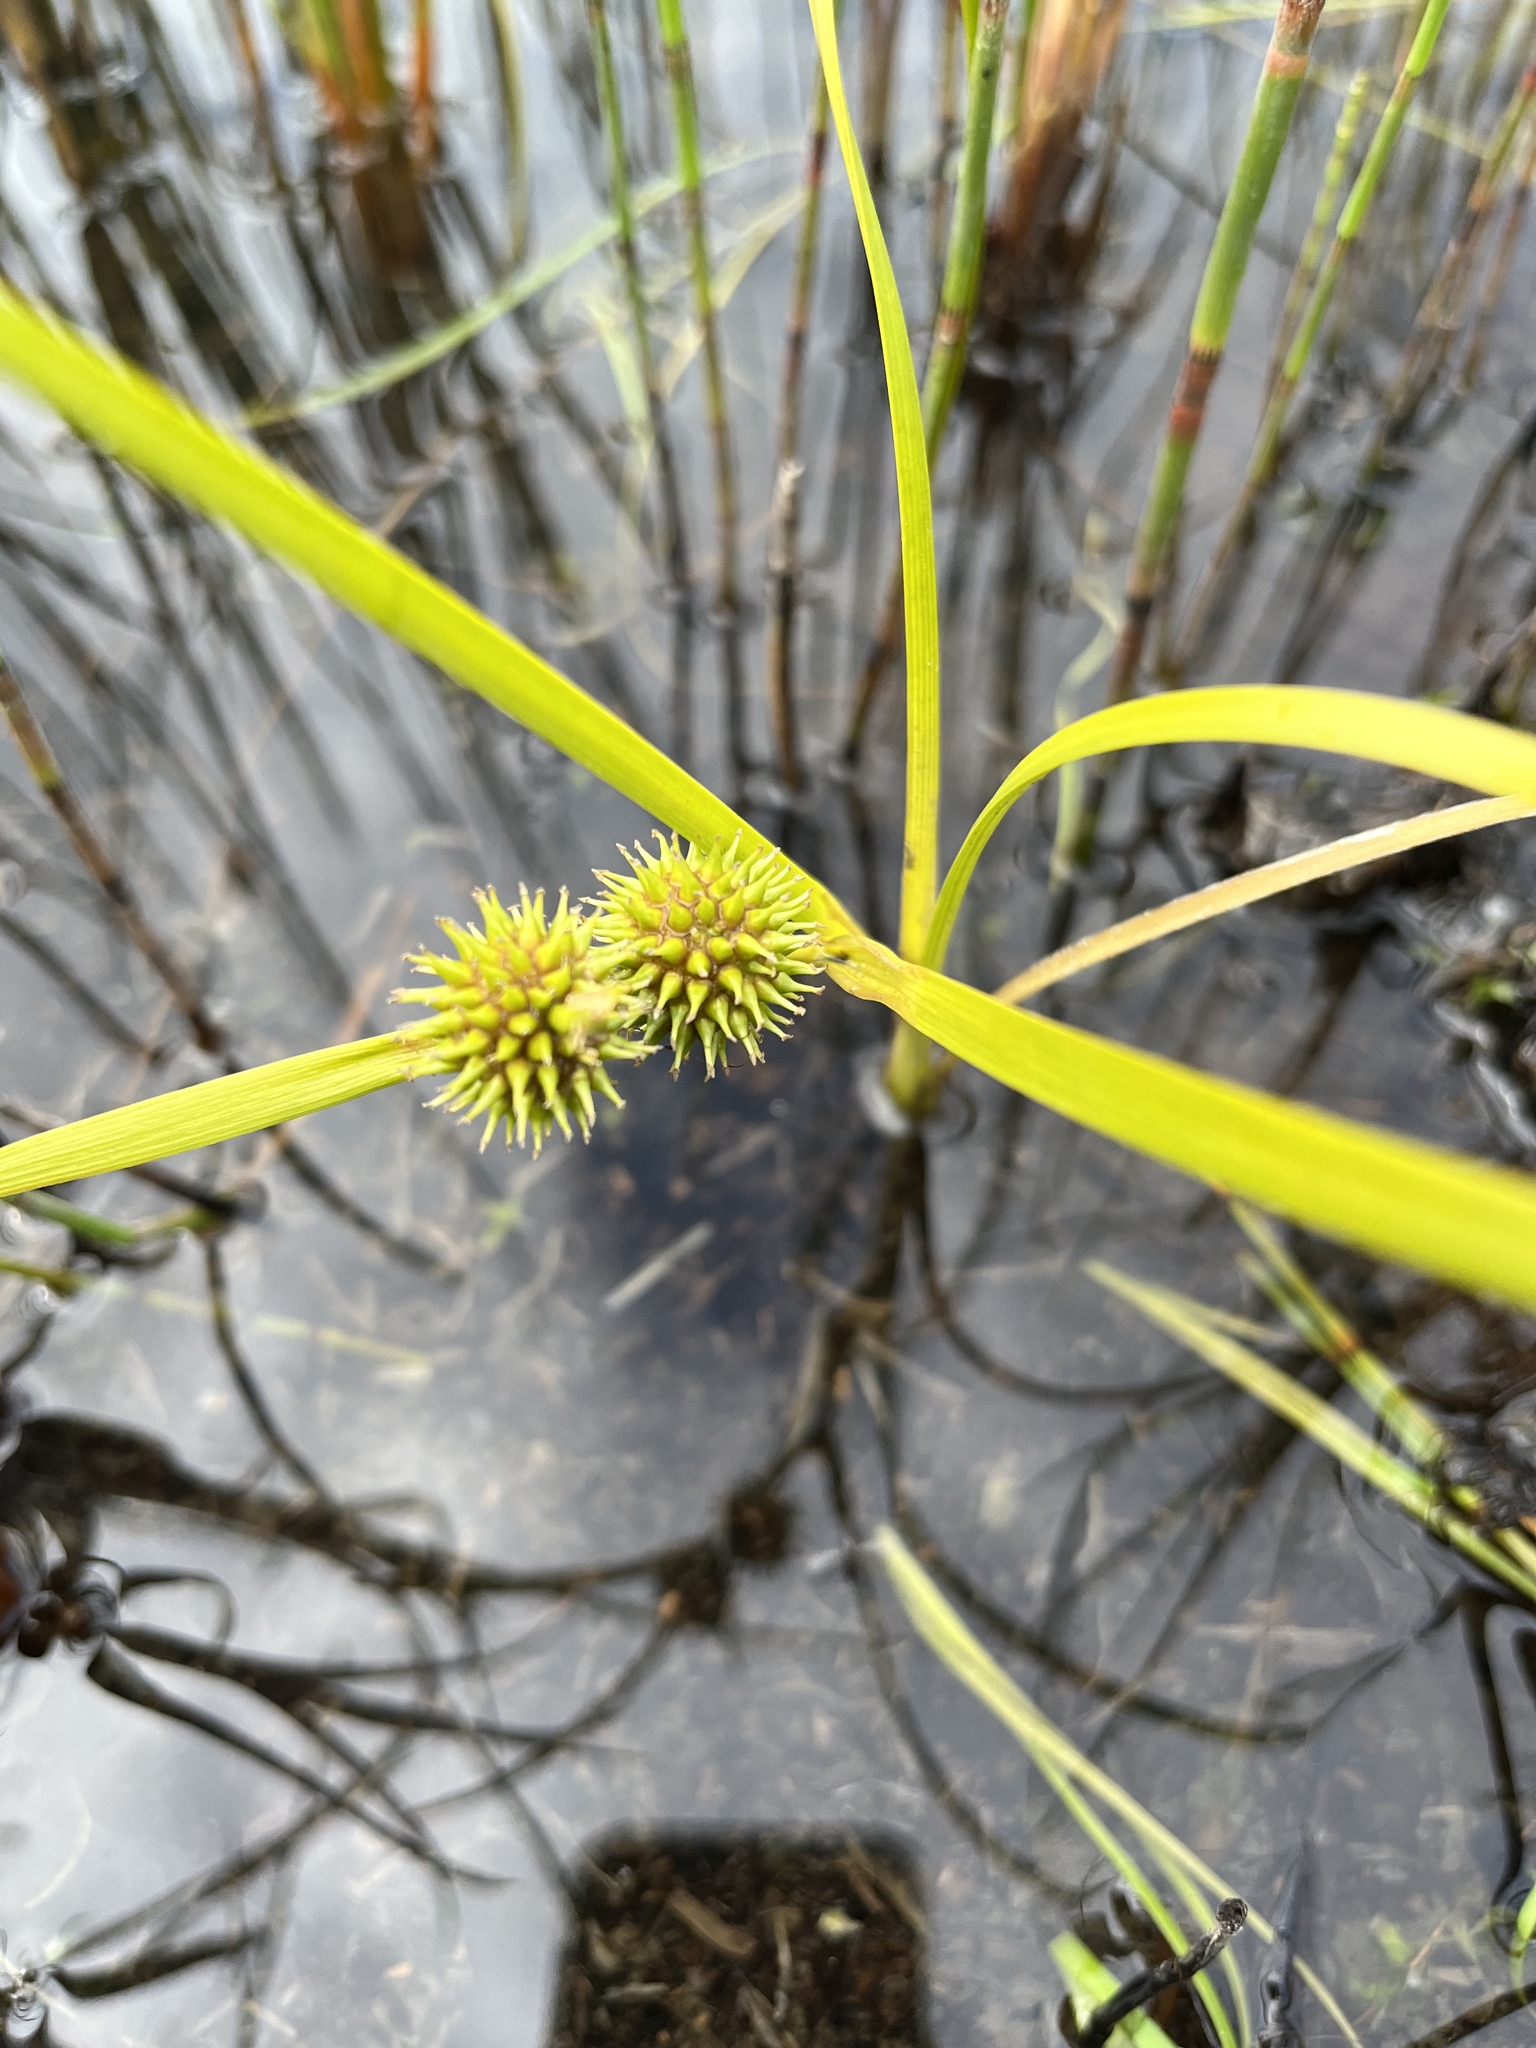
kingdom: Plantae
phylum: Tracheophyta
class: Liliopsida
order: Poales
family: Typhaceae
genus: Sparganium
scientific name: Sparganium angustifolium
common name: Floating bur-reed
